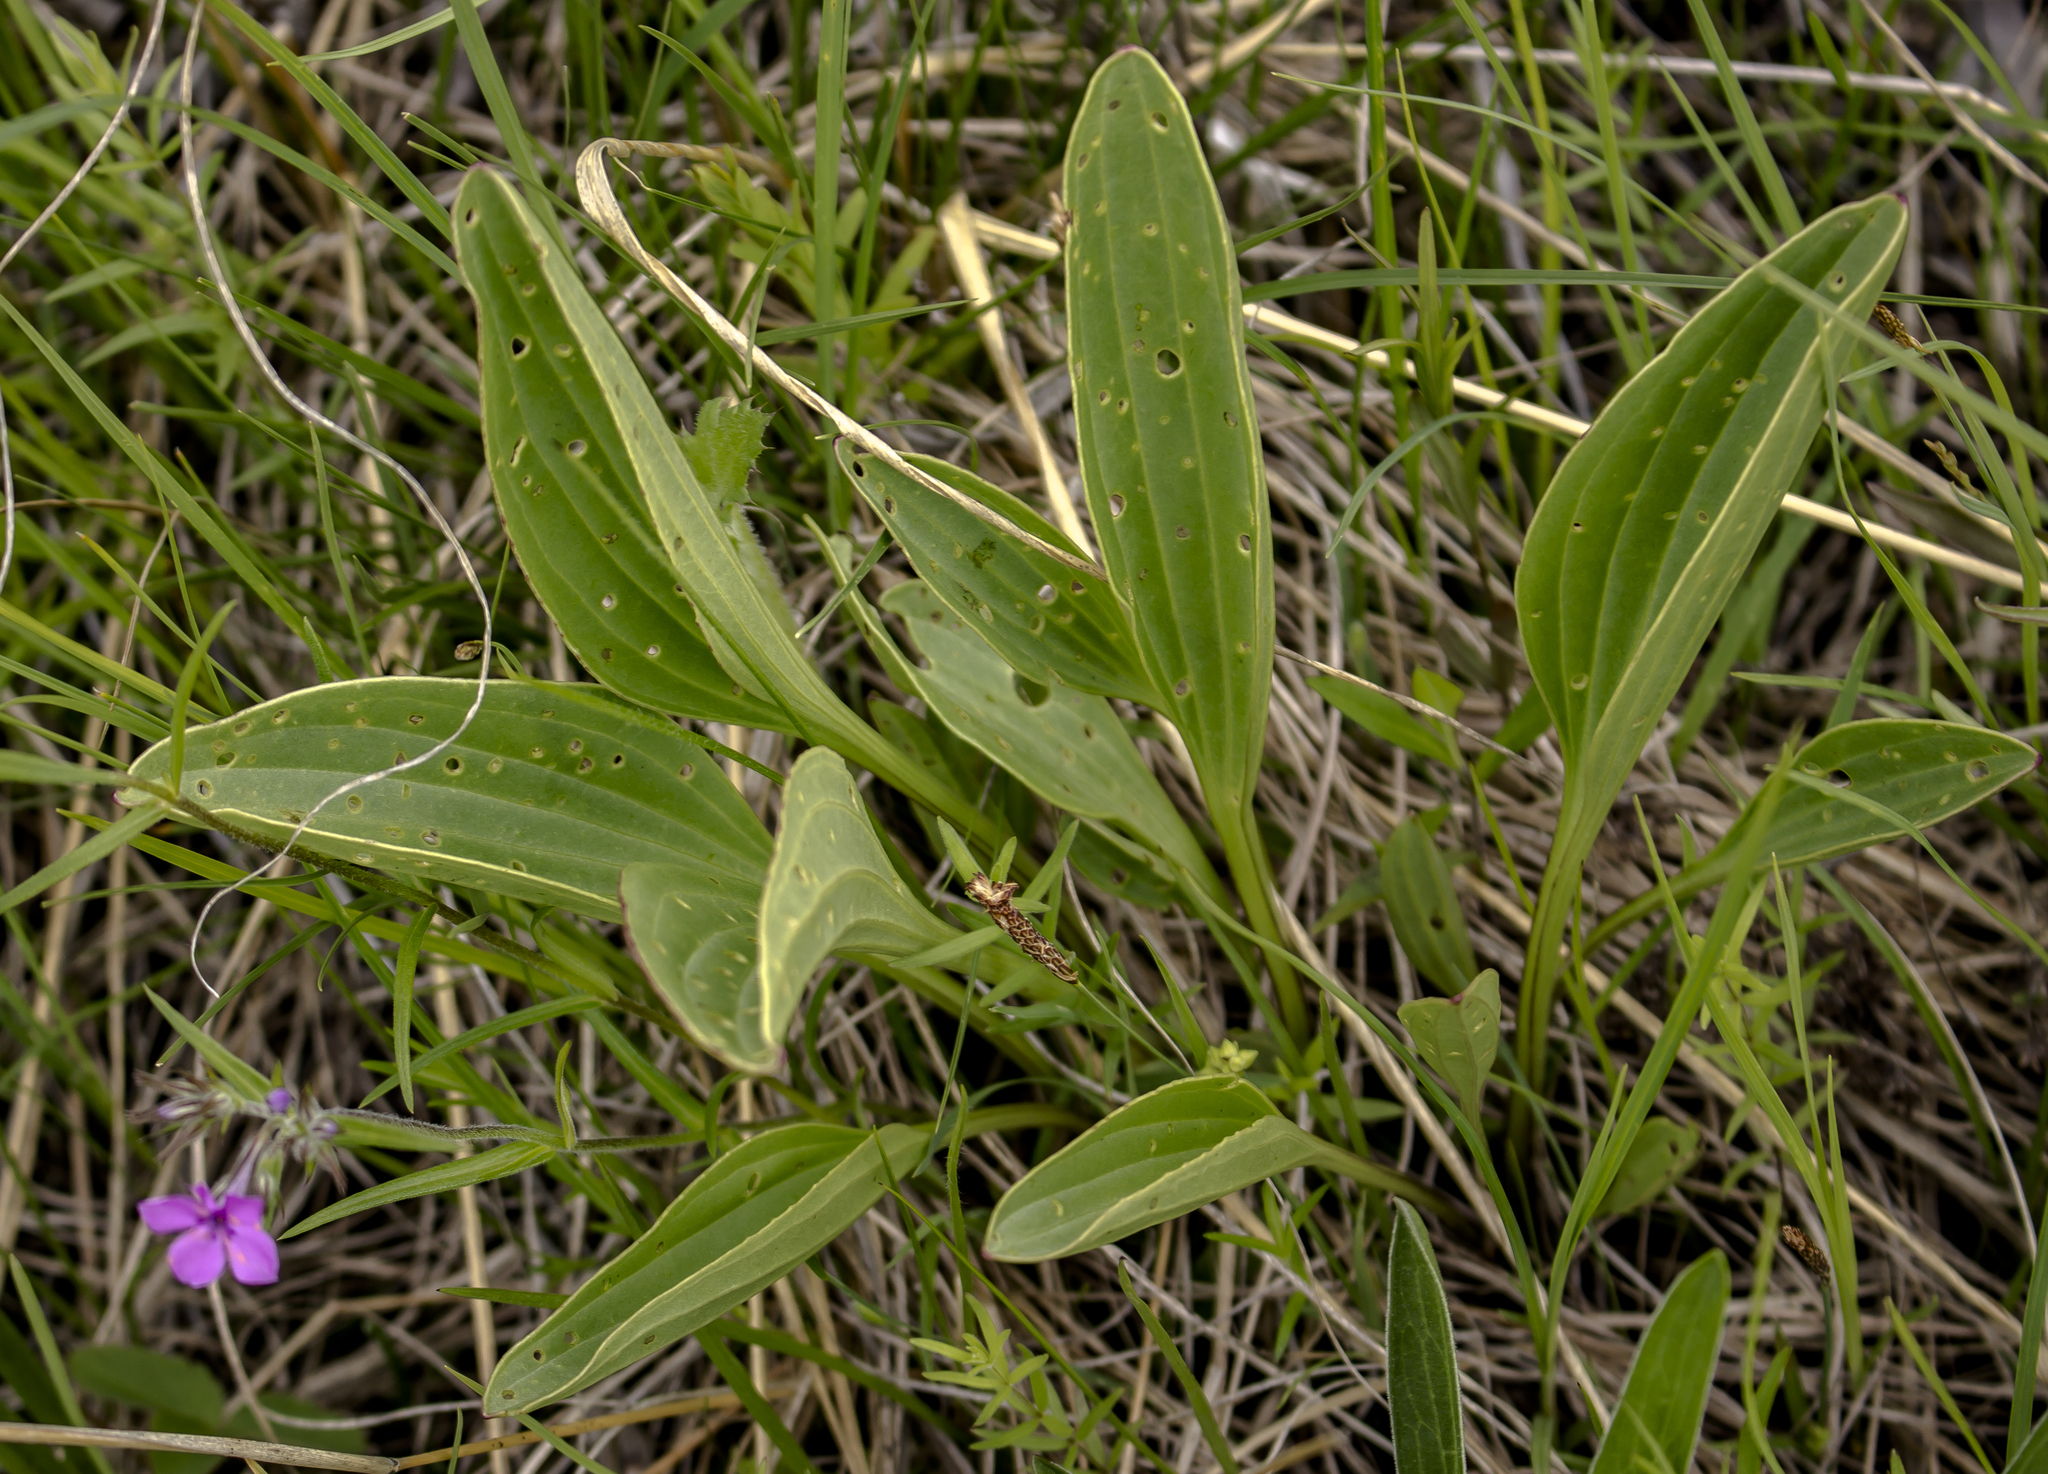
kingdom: Plantae
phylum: Tracheophyta
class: Magnoliopsida
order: Asterales
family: Asteraceae
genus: Arnoglossum
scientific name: Arnoglossum plantagineum
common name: Groove-stemmed indian-plantain
